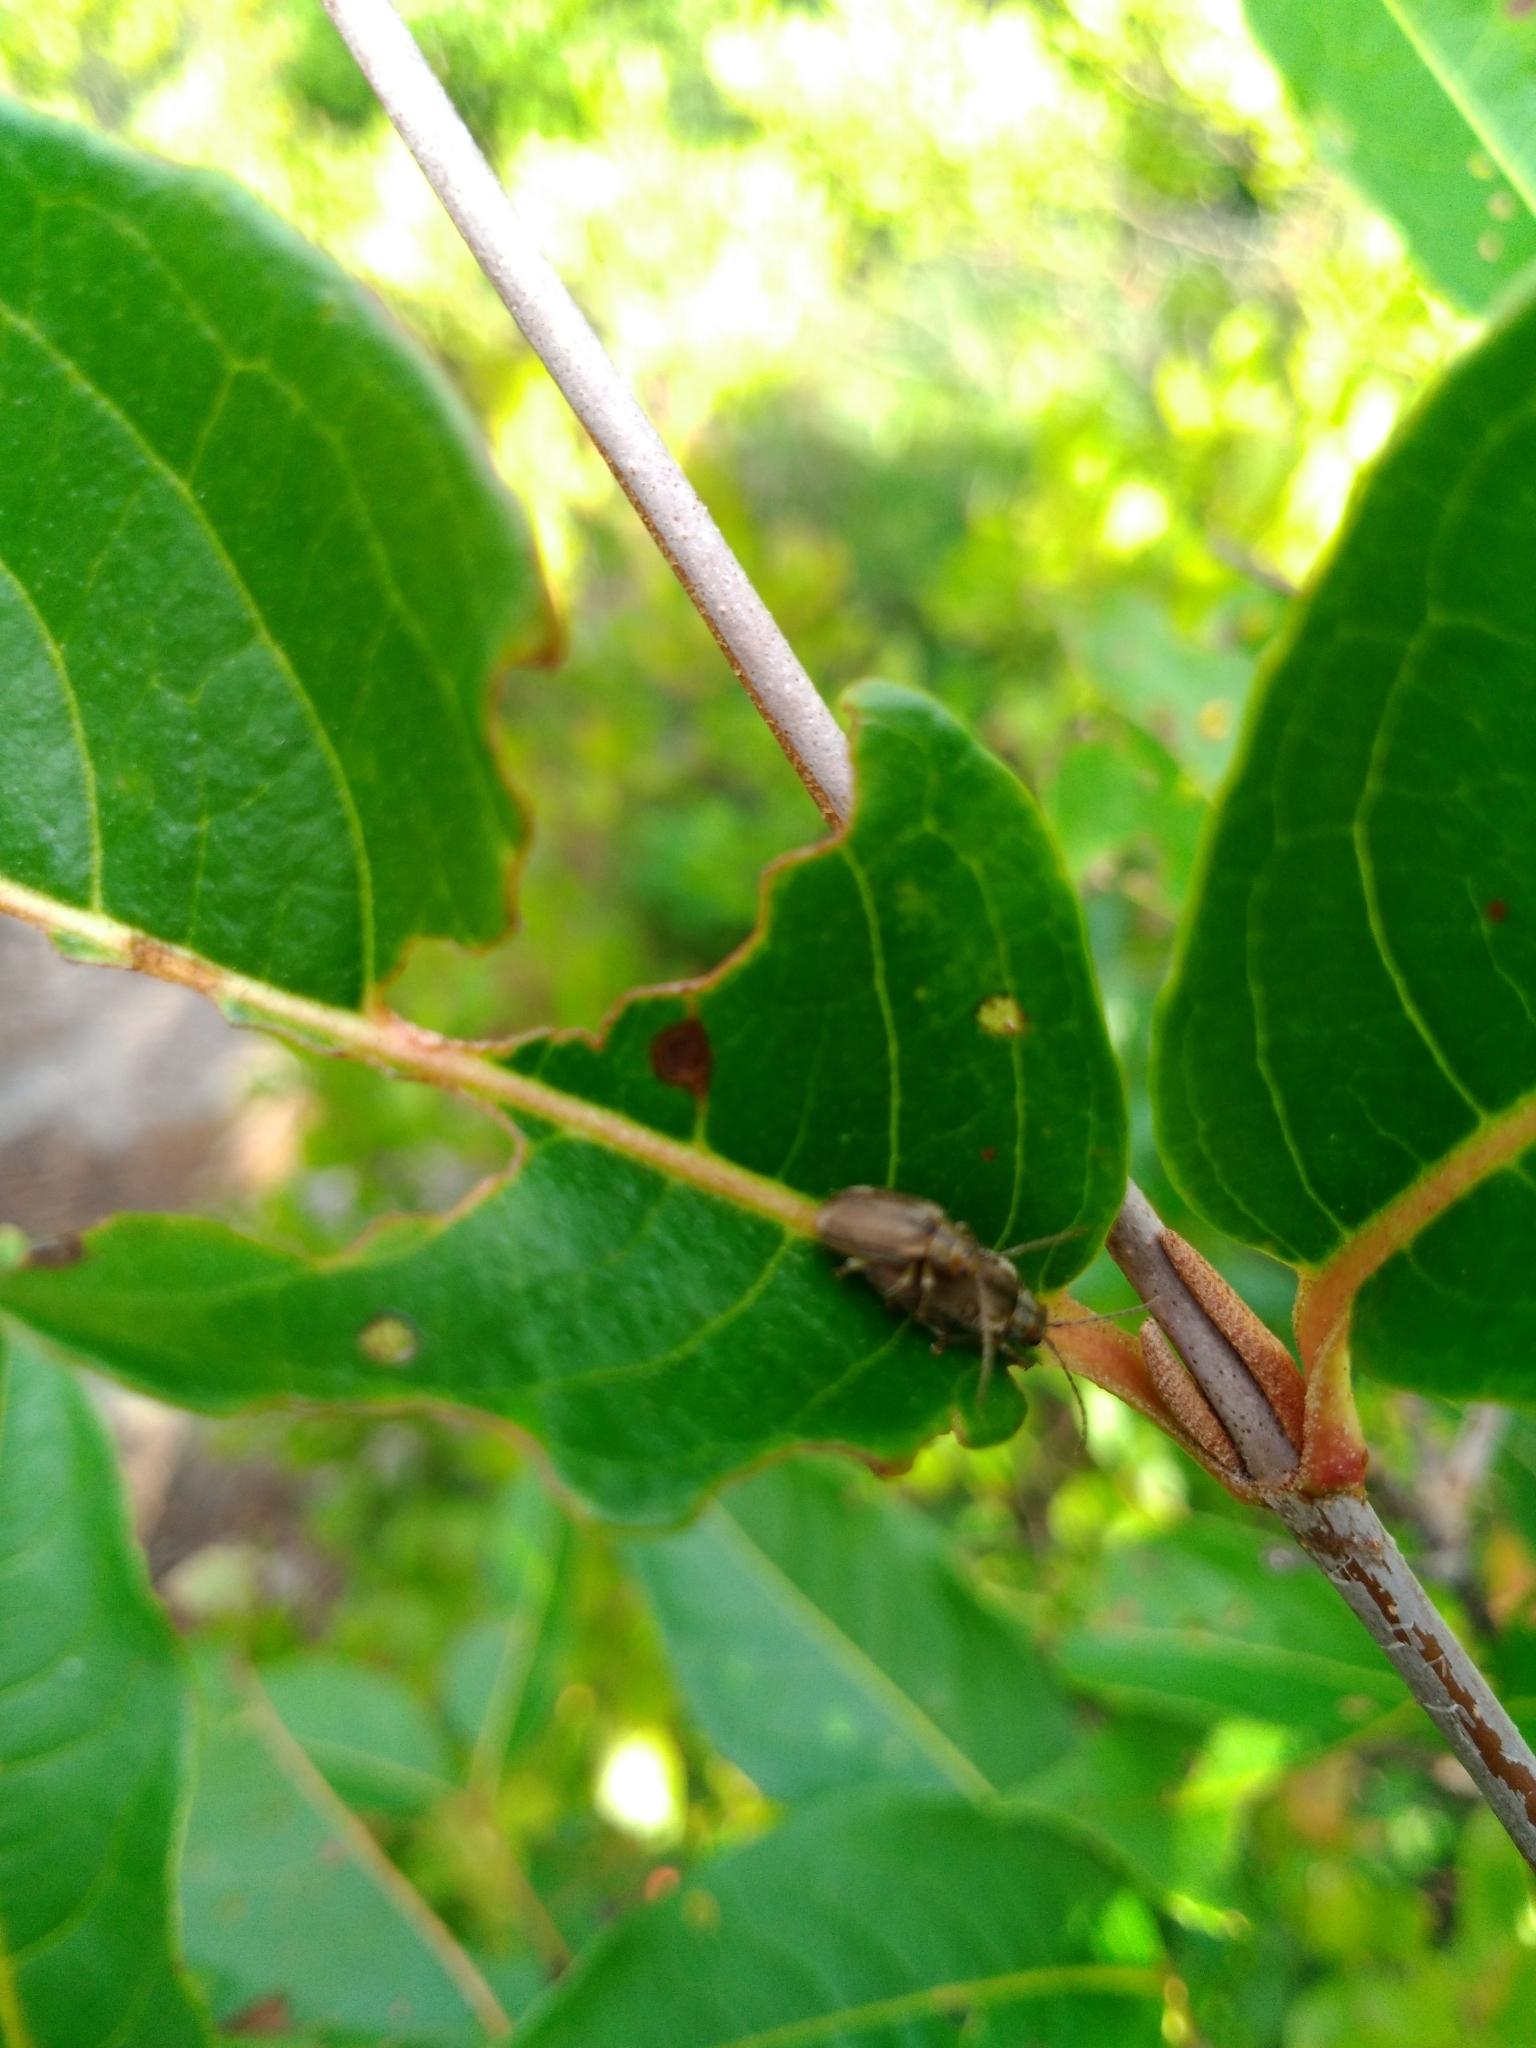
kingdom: Animalia
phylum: Arthropoda
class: Insecta
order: Coleoptera
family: Chrysomelidae
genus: Pyrrhalta
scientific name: Pyrrhalta viburni
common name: Guelder-rose leaf beetle
